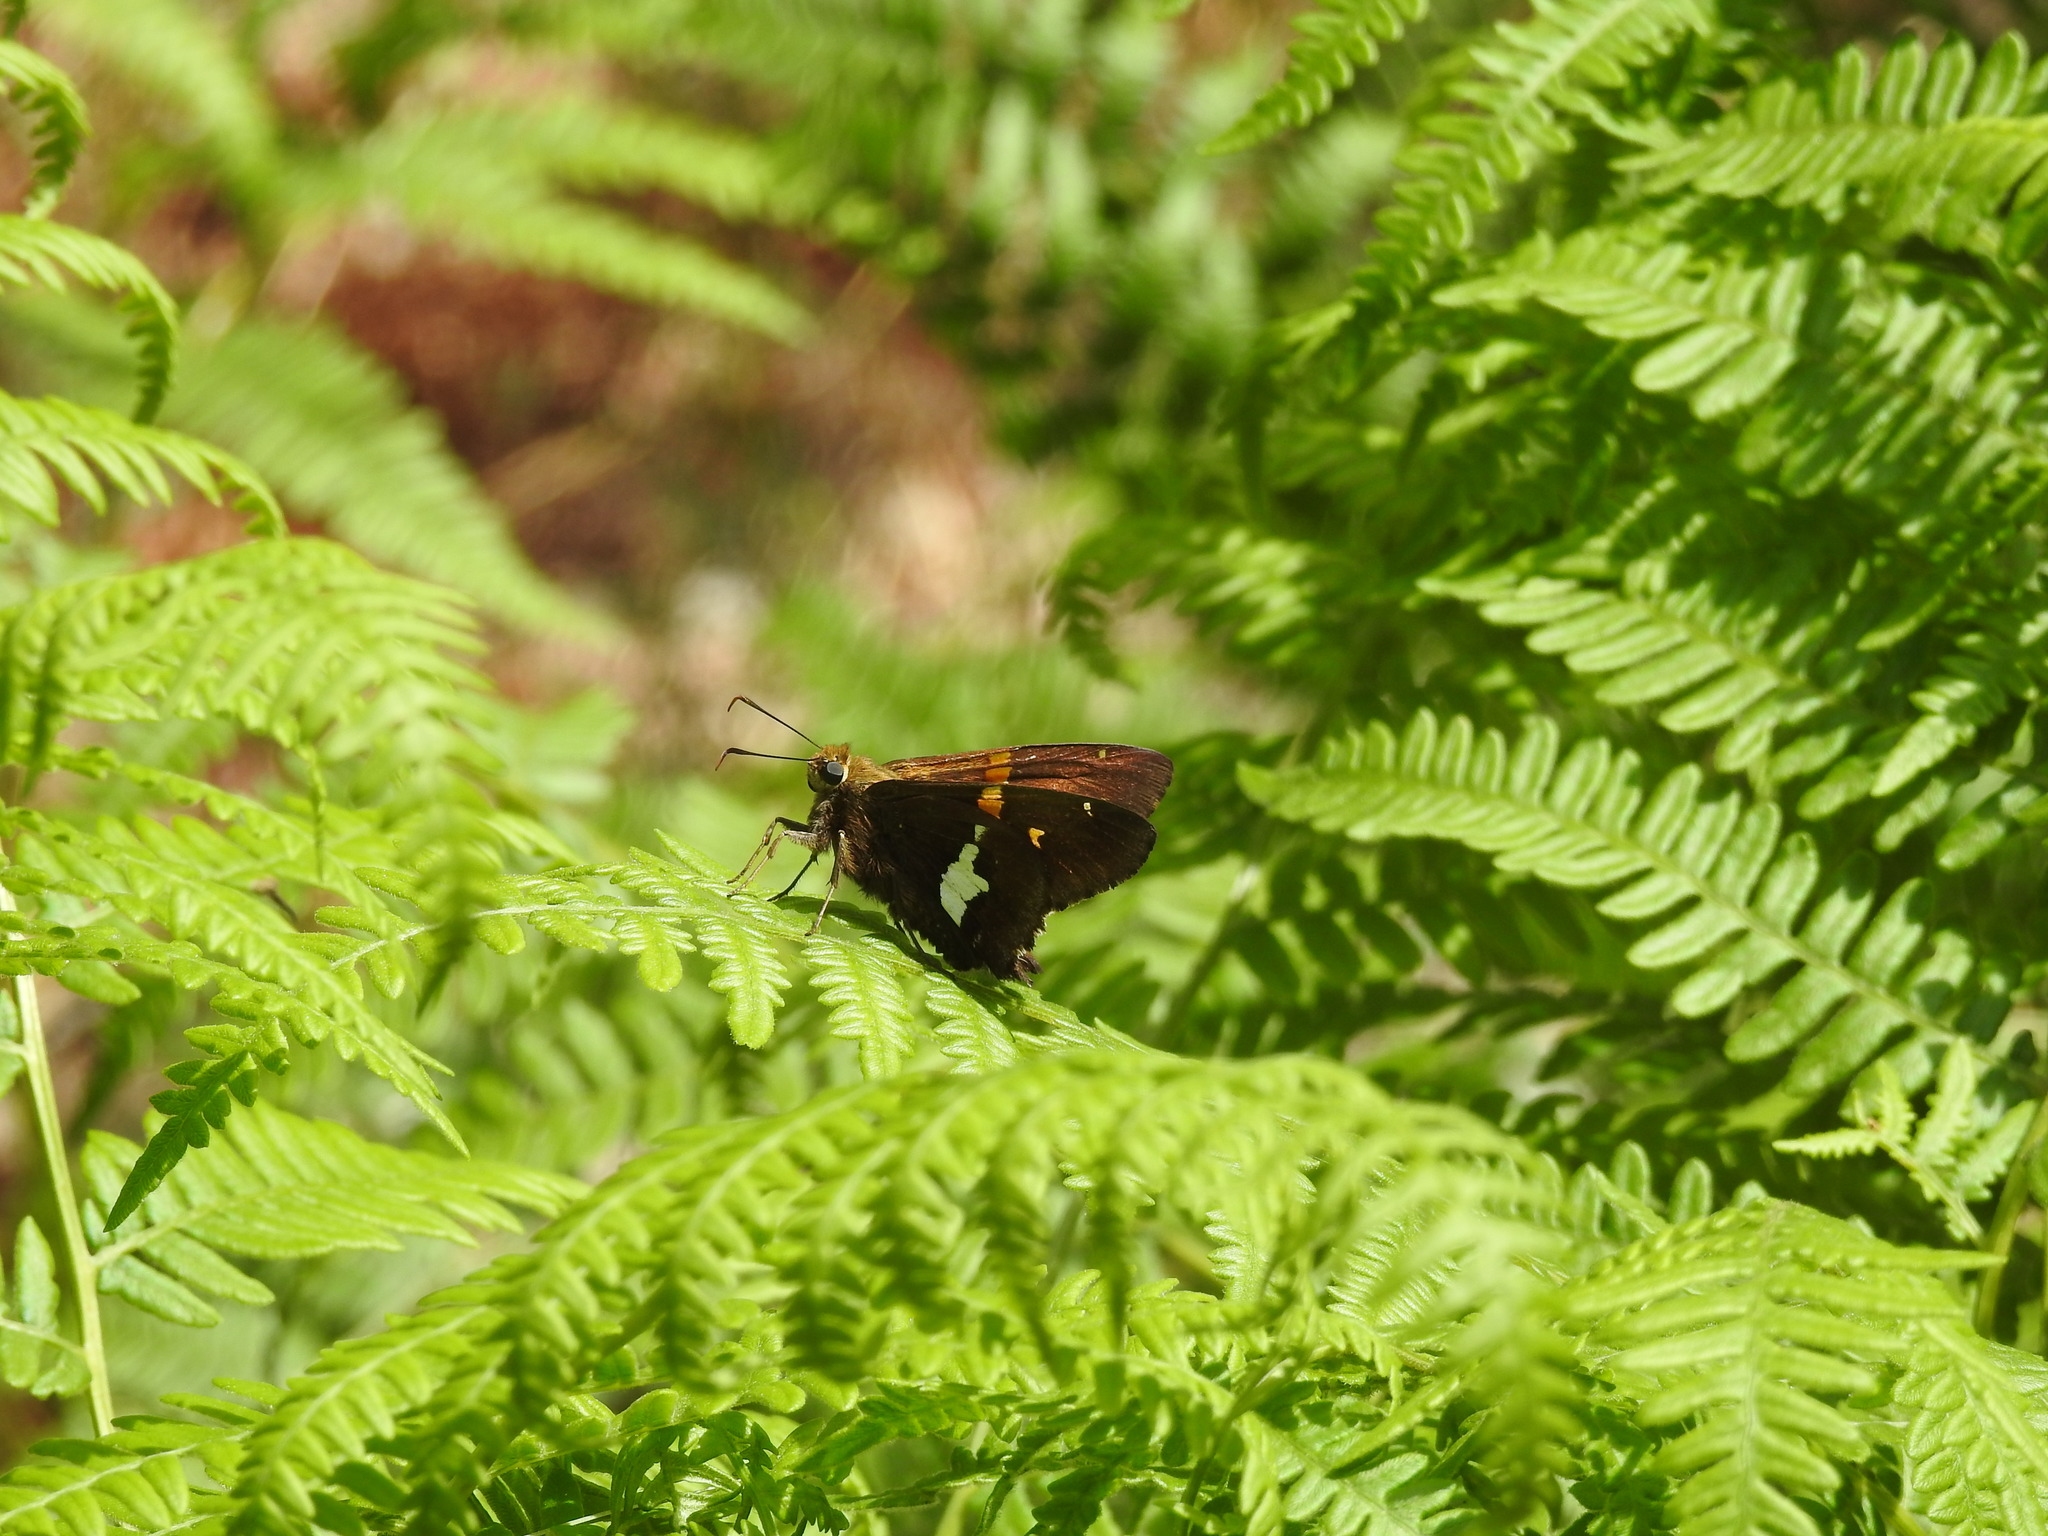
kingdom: Animalia
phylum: Arthropoda
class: Insecta
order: Lepidoptera
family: Hesperiidae
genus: Epargyreus
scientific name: Epargyreus clarus
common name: Silver-spotted skipper
